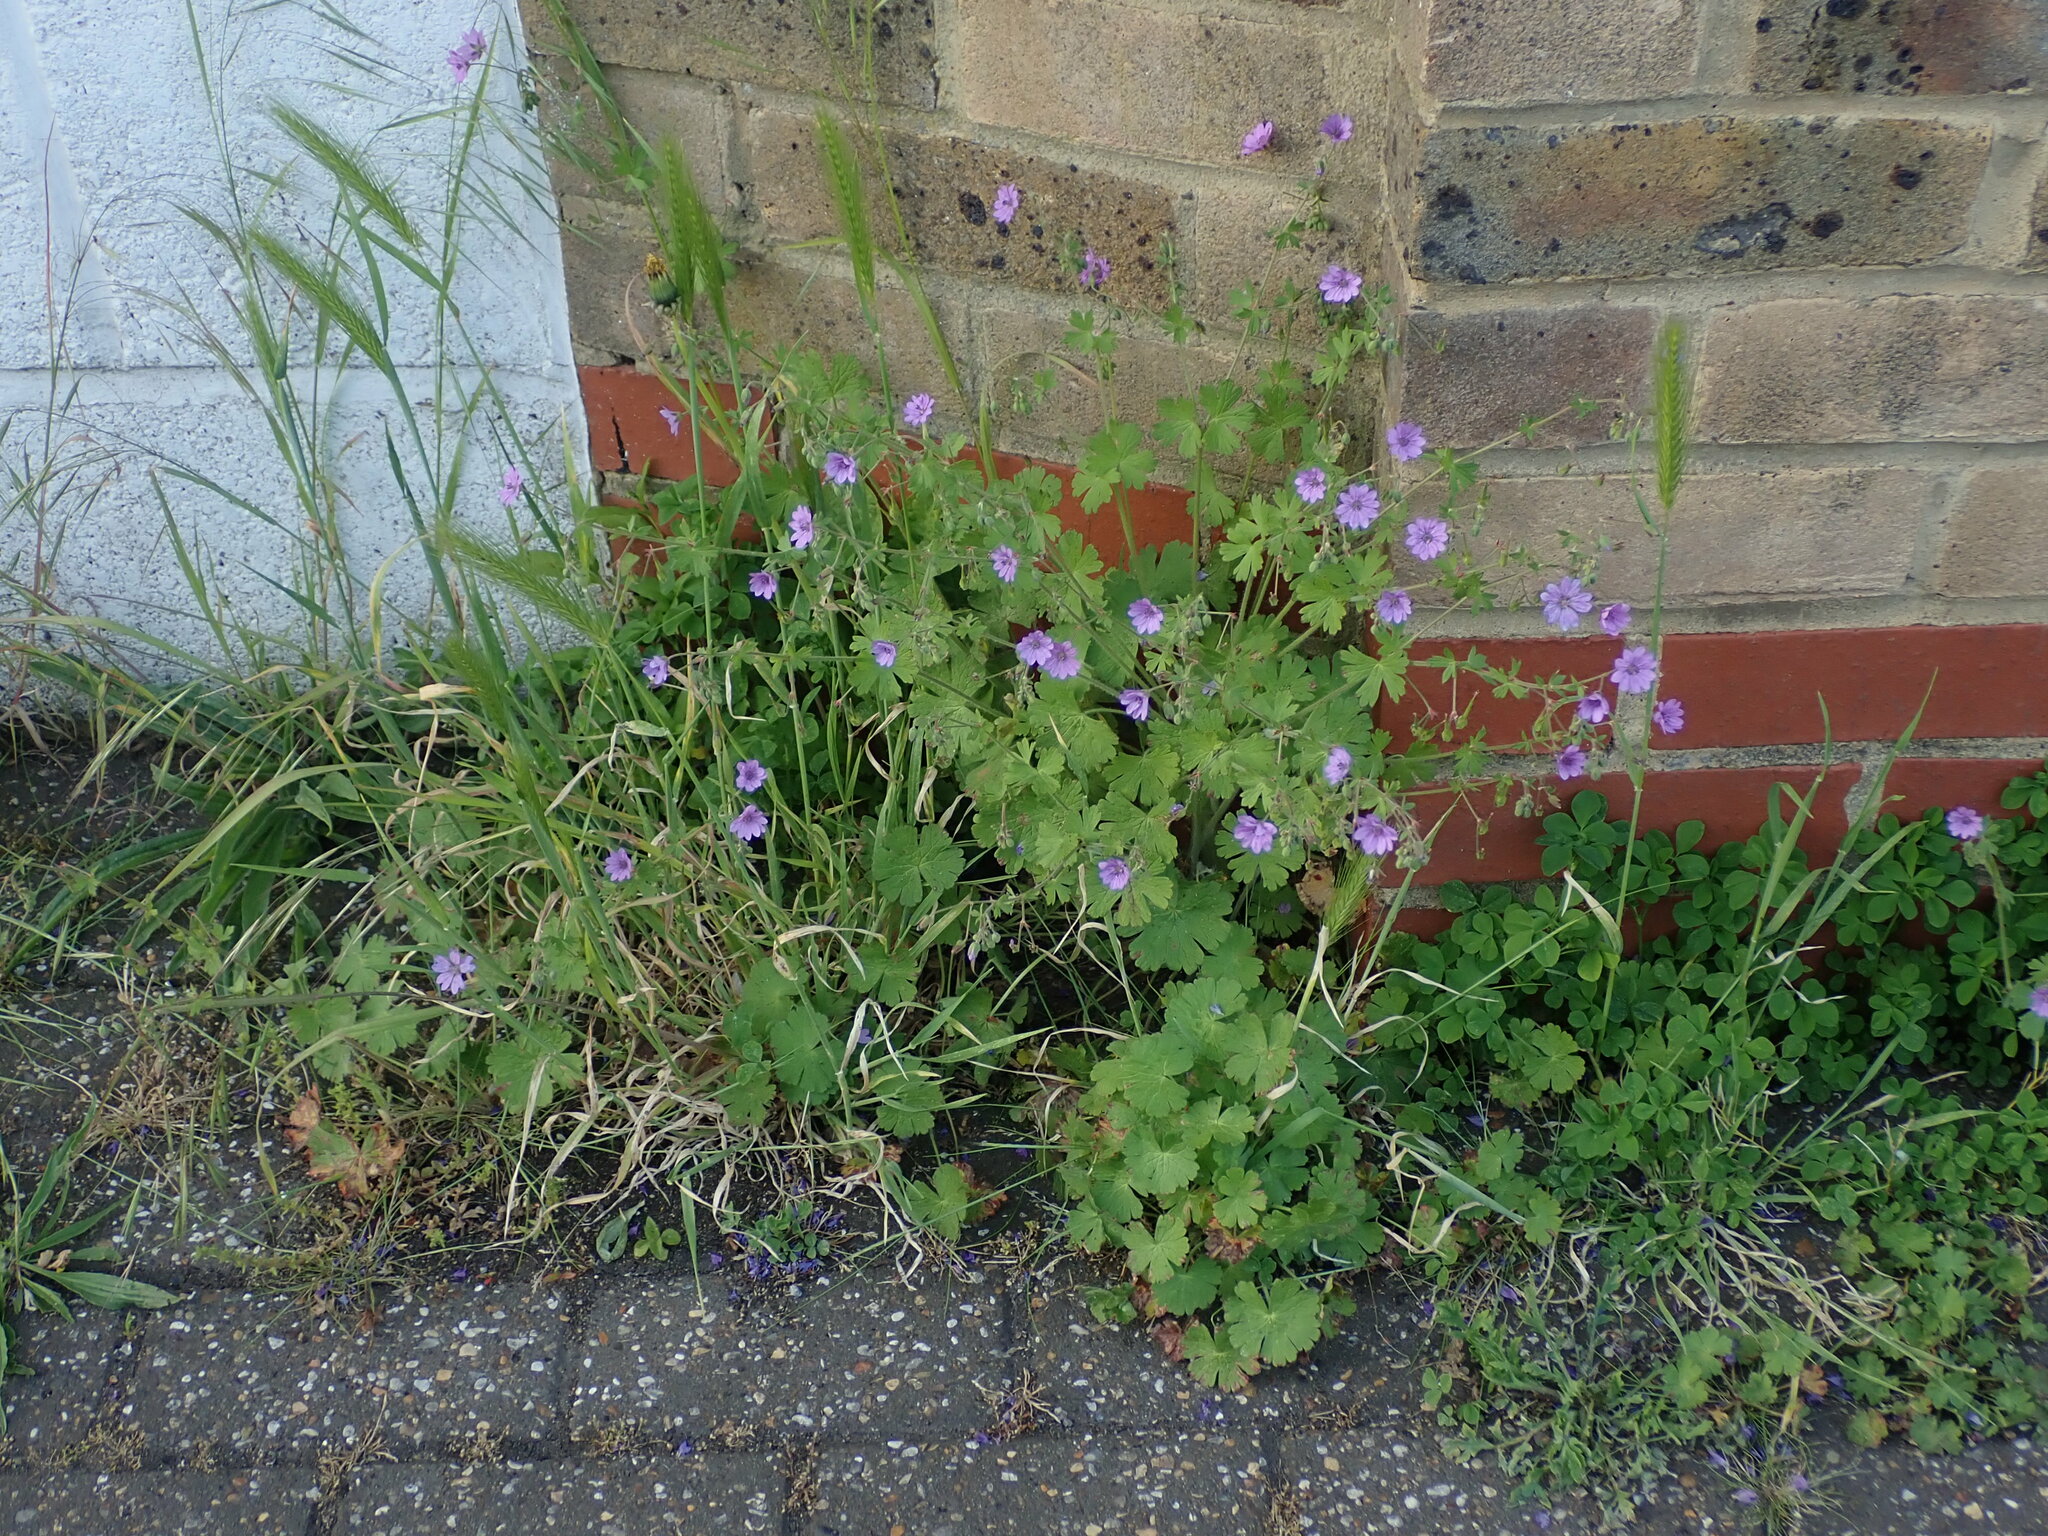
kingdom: Plantae
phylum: Tracheophyta
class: Magnoliopsida
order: Geraniales
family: Geraniaceae
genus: Geranium
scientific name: Geranium pyrenaicum
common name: Hedgerow crane's-bill
